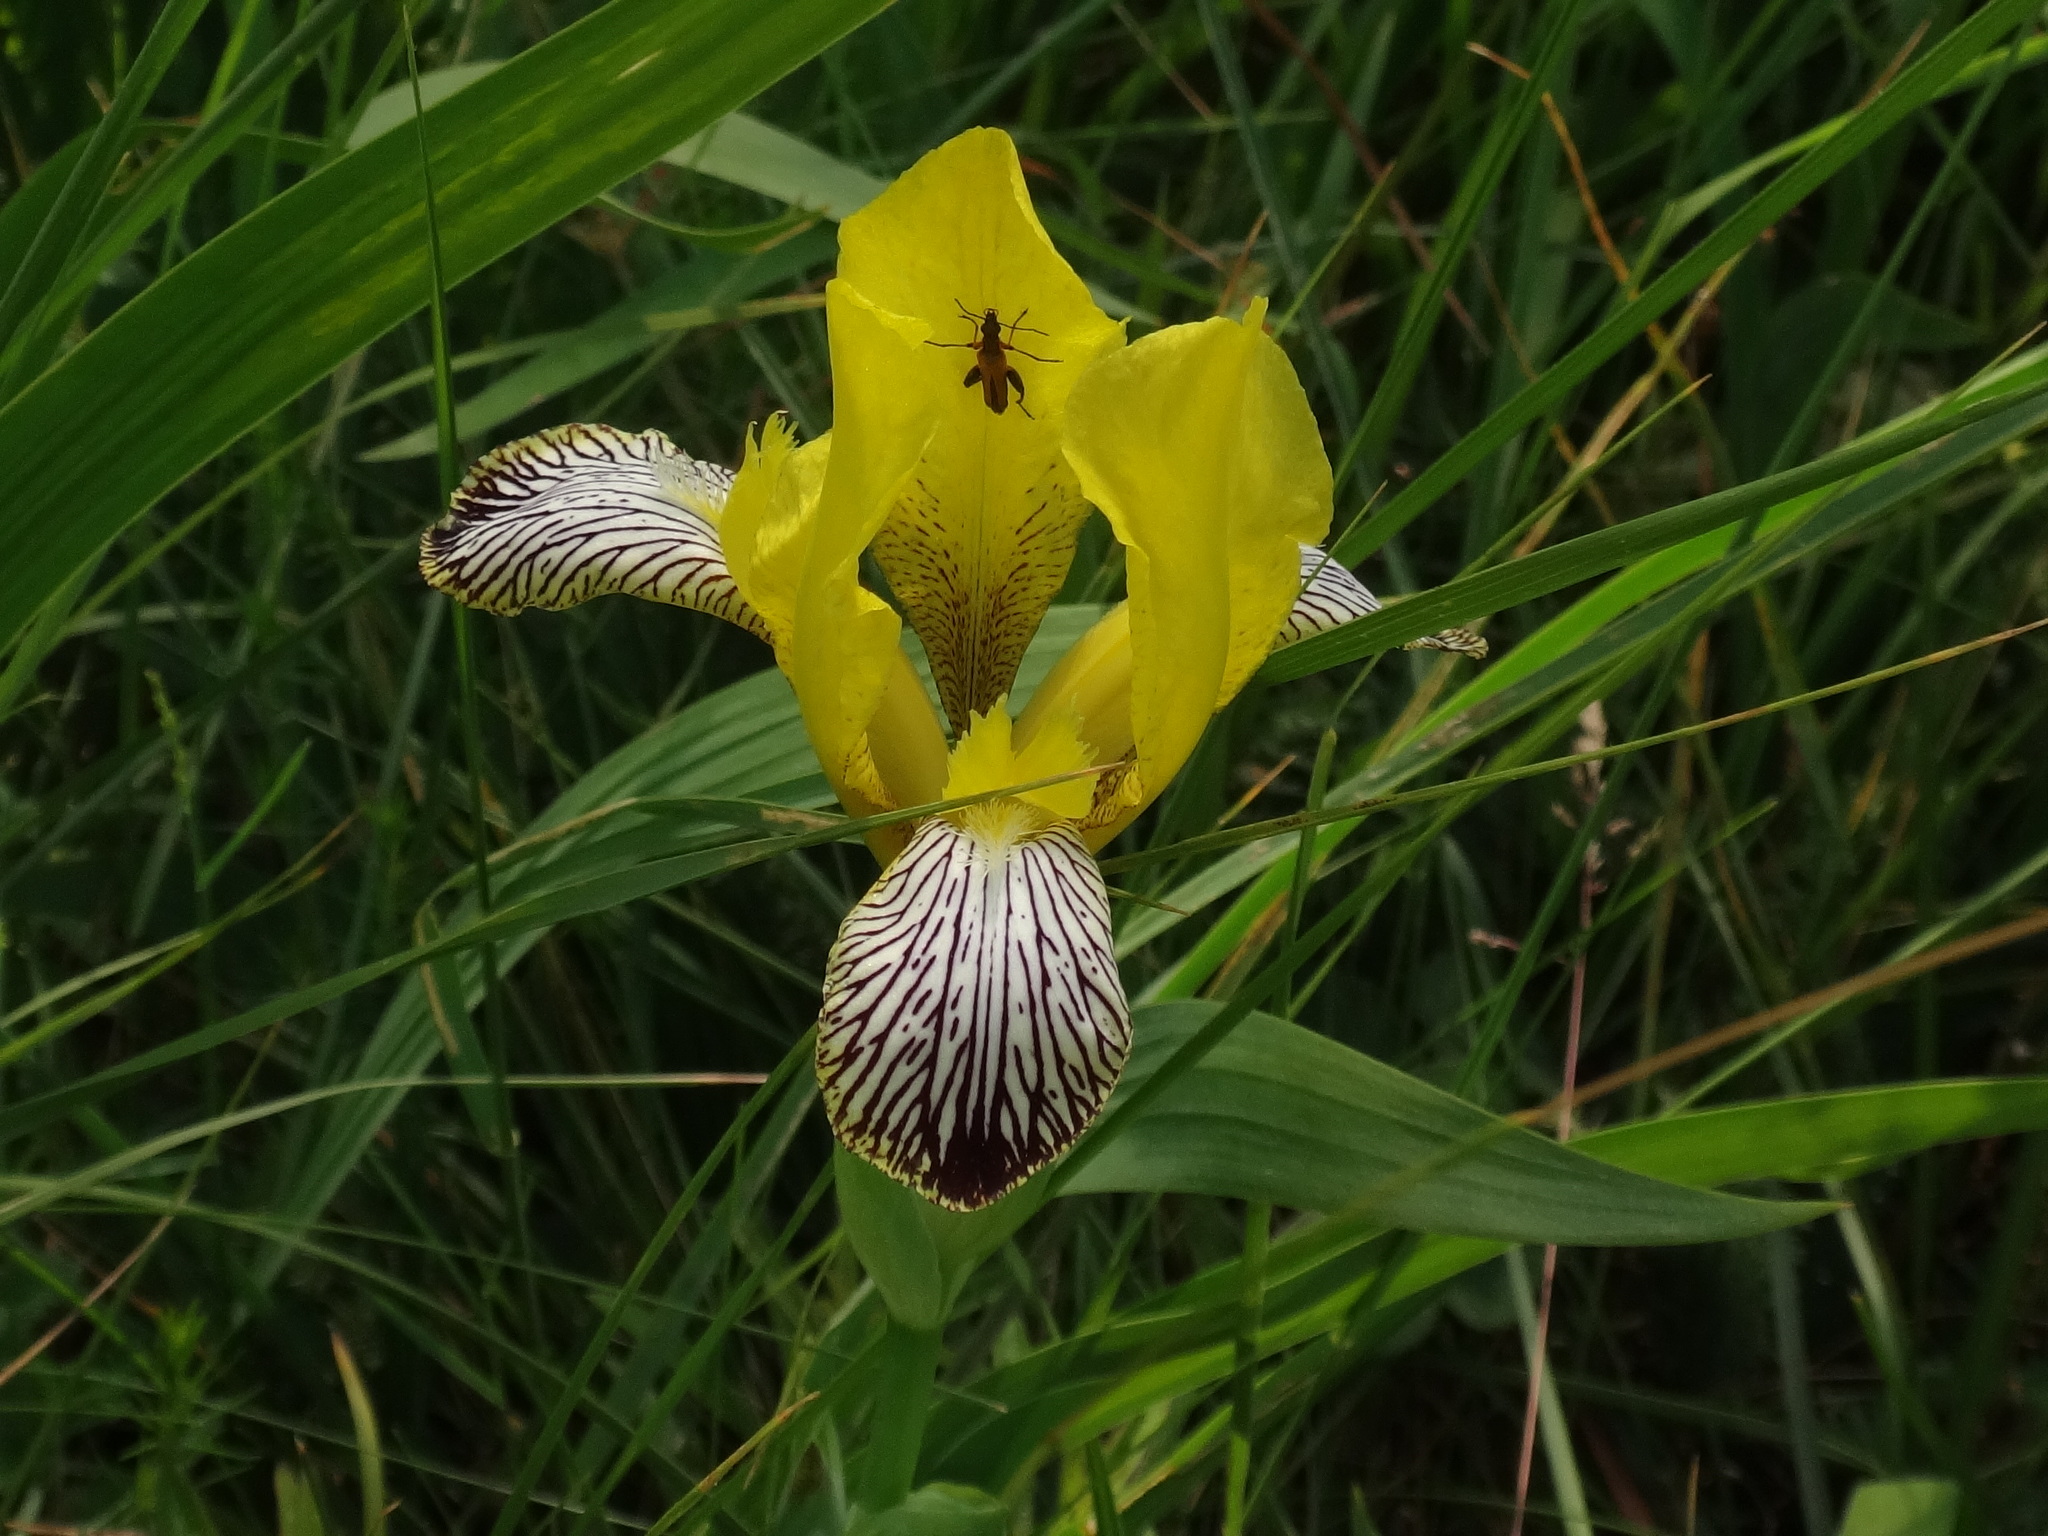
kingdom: Plantae
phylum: Tracheophyta
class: Liliopsida
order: Asparagales
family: Iridaceae
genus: Iris
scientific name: Iris variegata
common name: Hungarian iris
